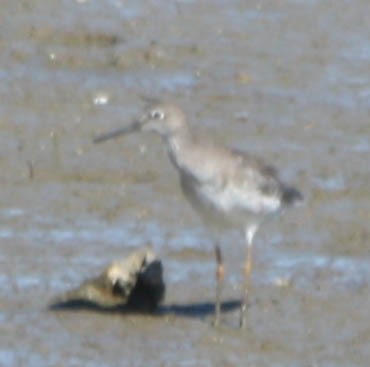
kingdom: Animalia
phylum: Chordata
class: Aves
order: Charadriiformes
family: Scolopacidae
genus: Tringa
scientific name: Tringa totanus
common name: Common redshank
